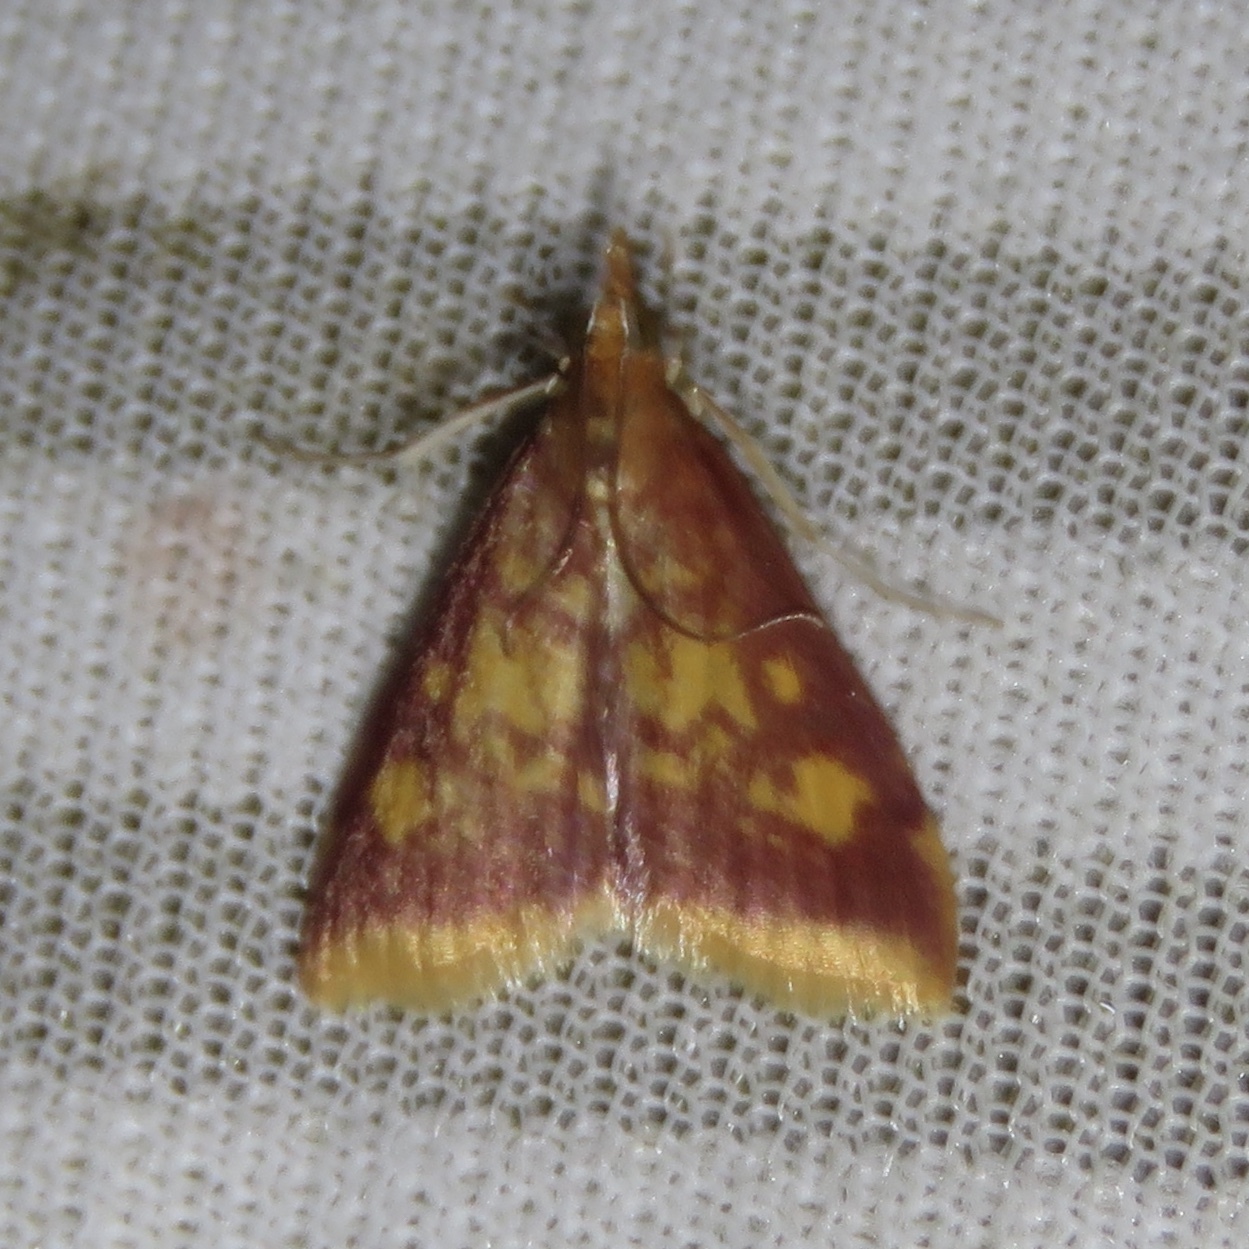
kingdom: Animalia
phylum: Arthropoda
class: Insecta
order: Lepidoptera
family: Crambidae
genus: Pyrausta
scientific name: Pyrausta acrionalis
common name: Mint-loving pyrausta moth
